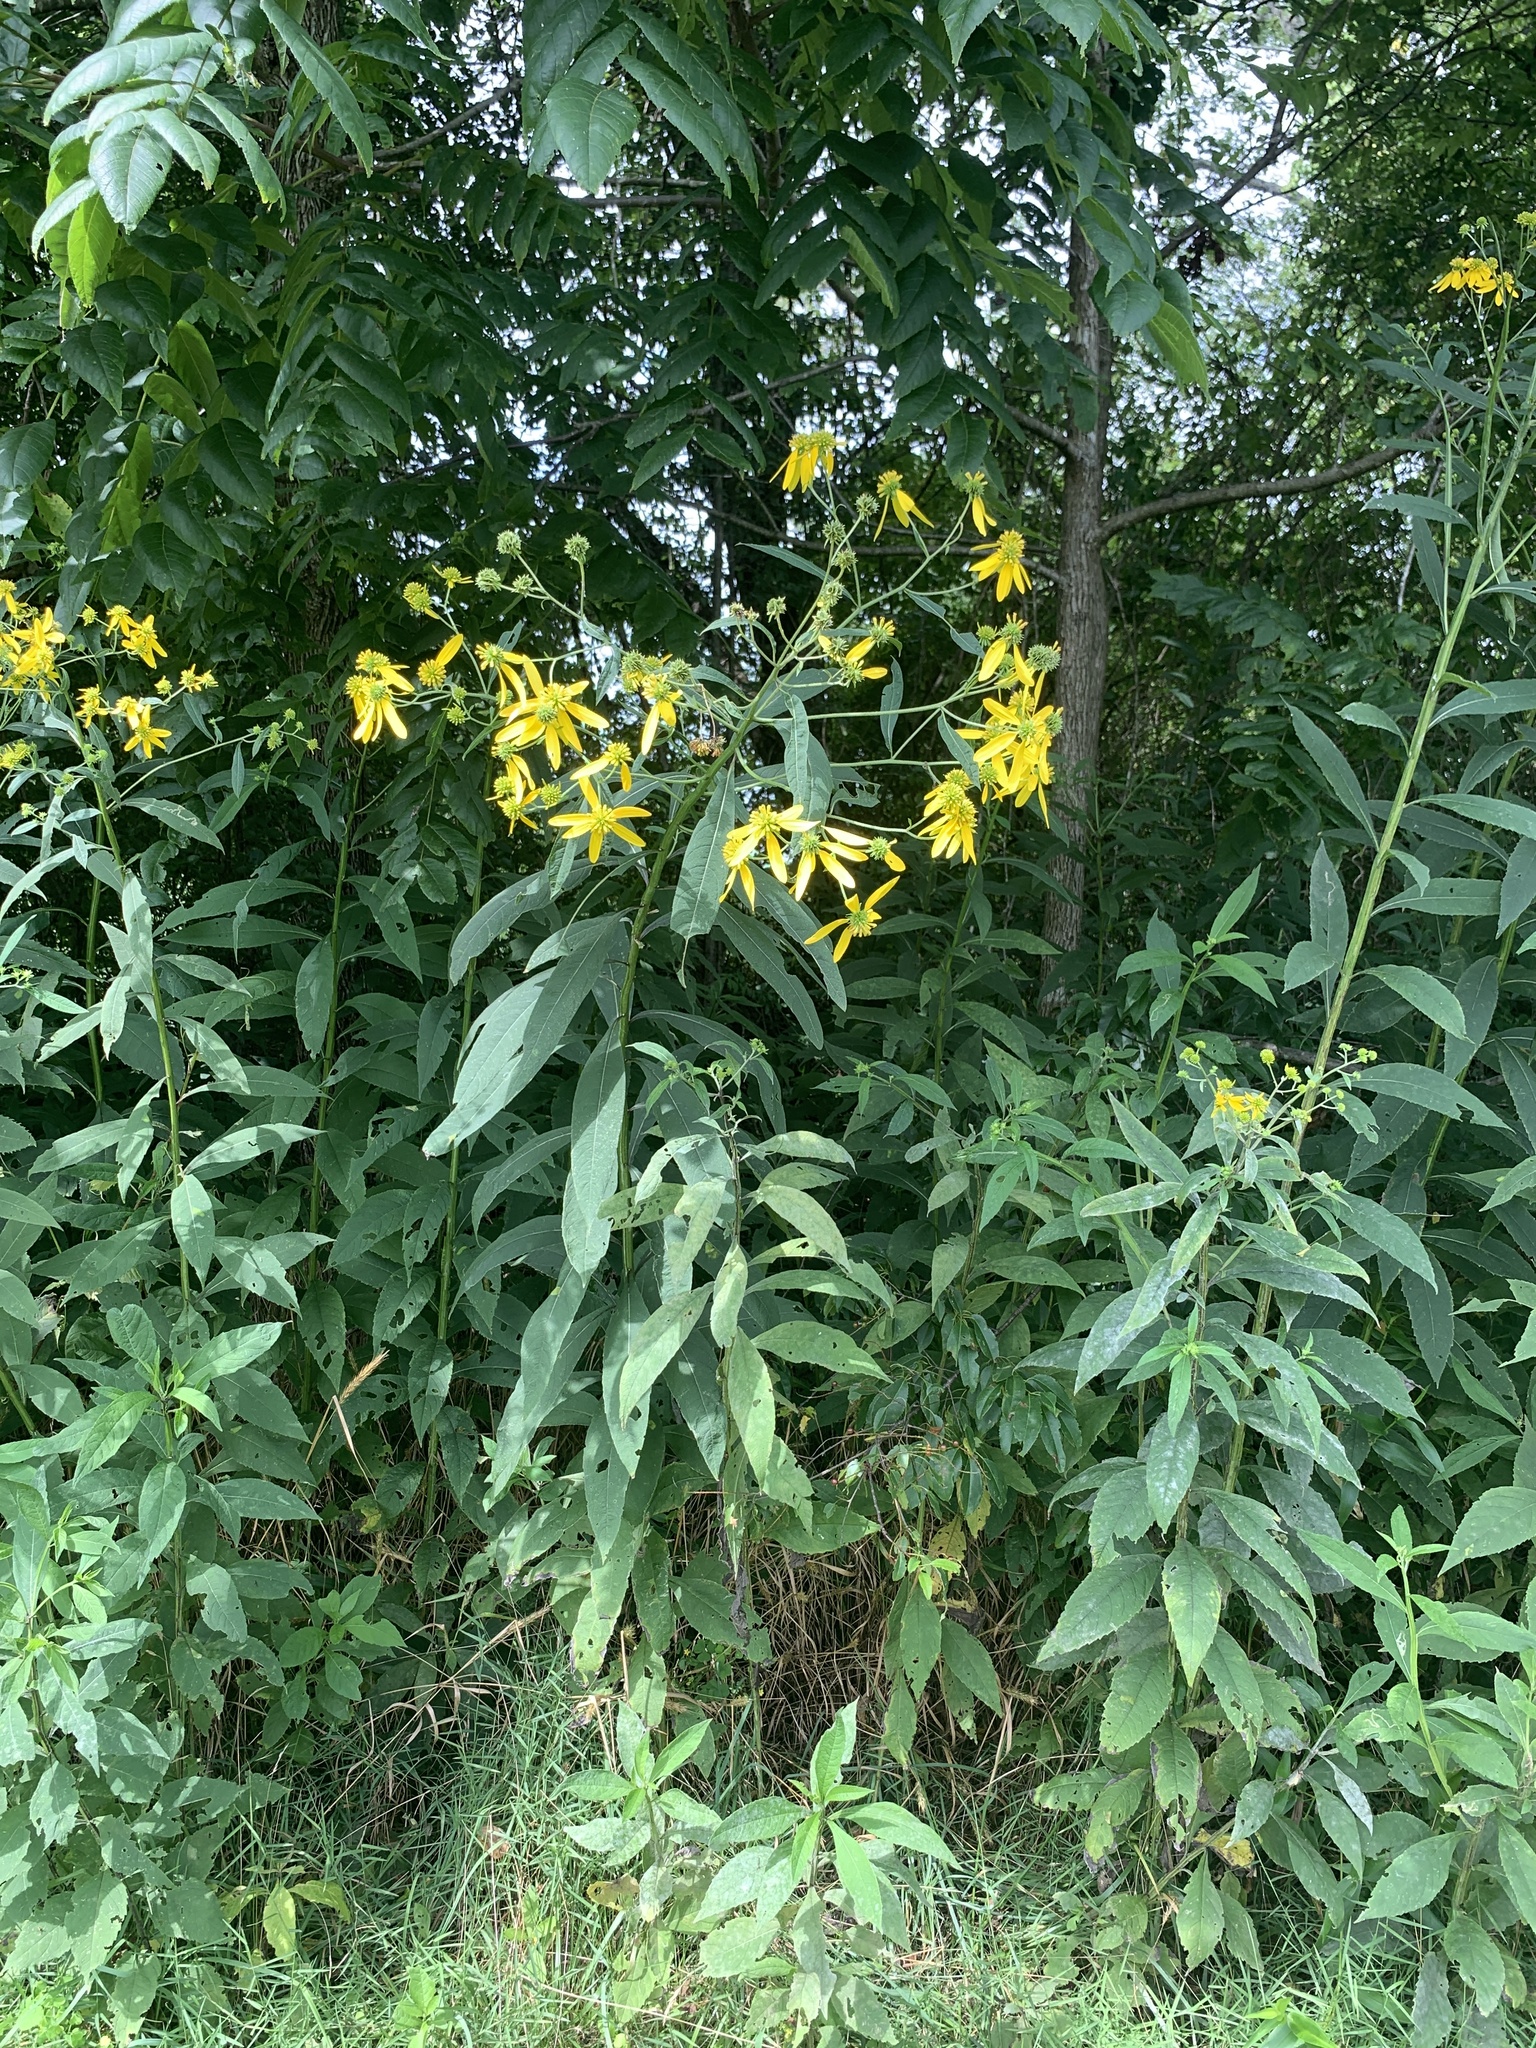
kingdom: Plantae
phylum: Tracheophyta
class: Magnoliopsida
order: Asterales
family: Asteraceae
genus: Verbesina
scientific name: Verbesina alternifolia
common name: Wingstem
